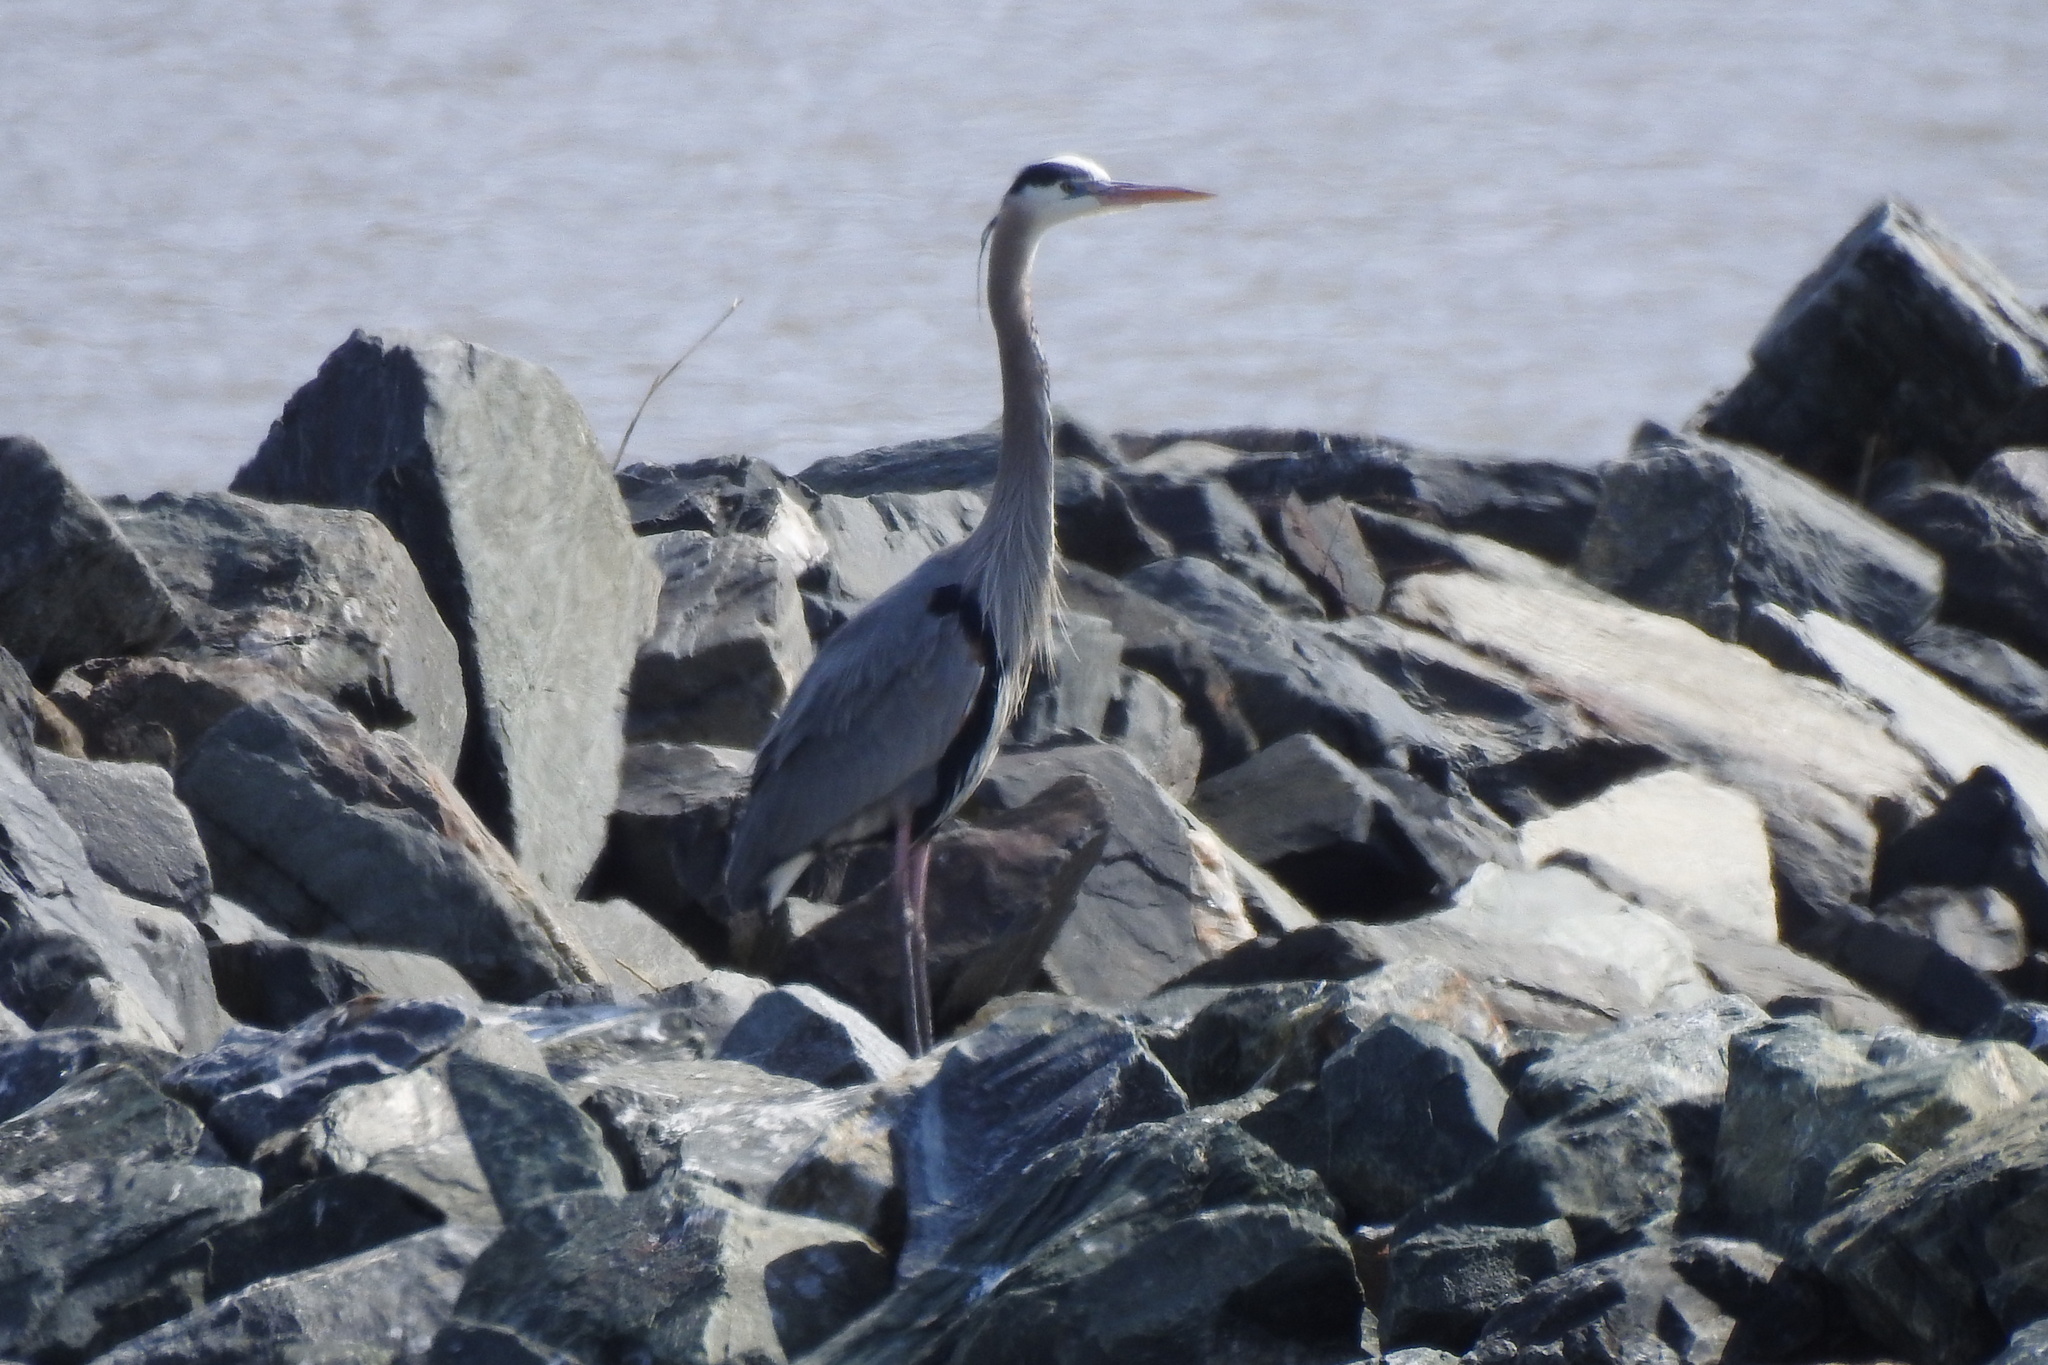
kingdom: Animalia
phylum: Chordata
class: Aves
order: Pelecaniformes
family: Ardeidae
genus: Ardea
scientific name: Ardea herodias
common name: Great blue heron
